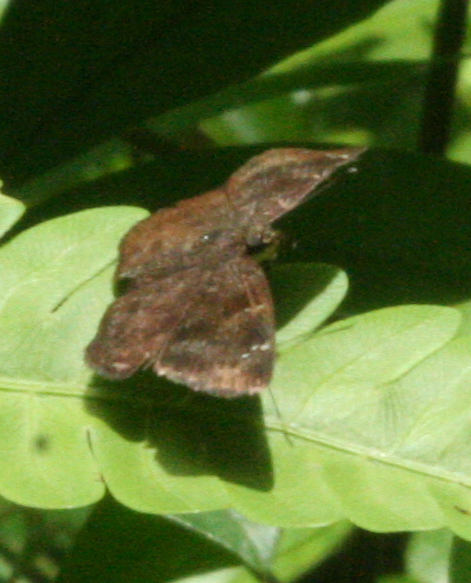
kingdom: Animalia
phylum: Arthropoda
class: Insecta
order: Lepidoptera
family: Hesperiidae
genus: Tagiades
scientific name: Tagiades gana
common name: Suffused snow flat
